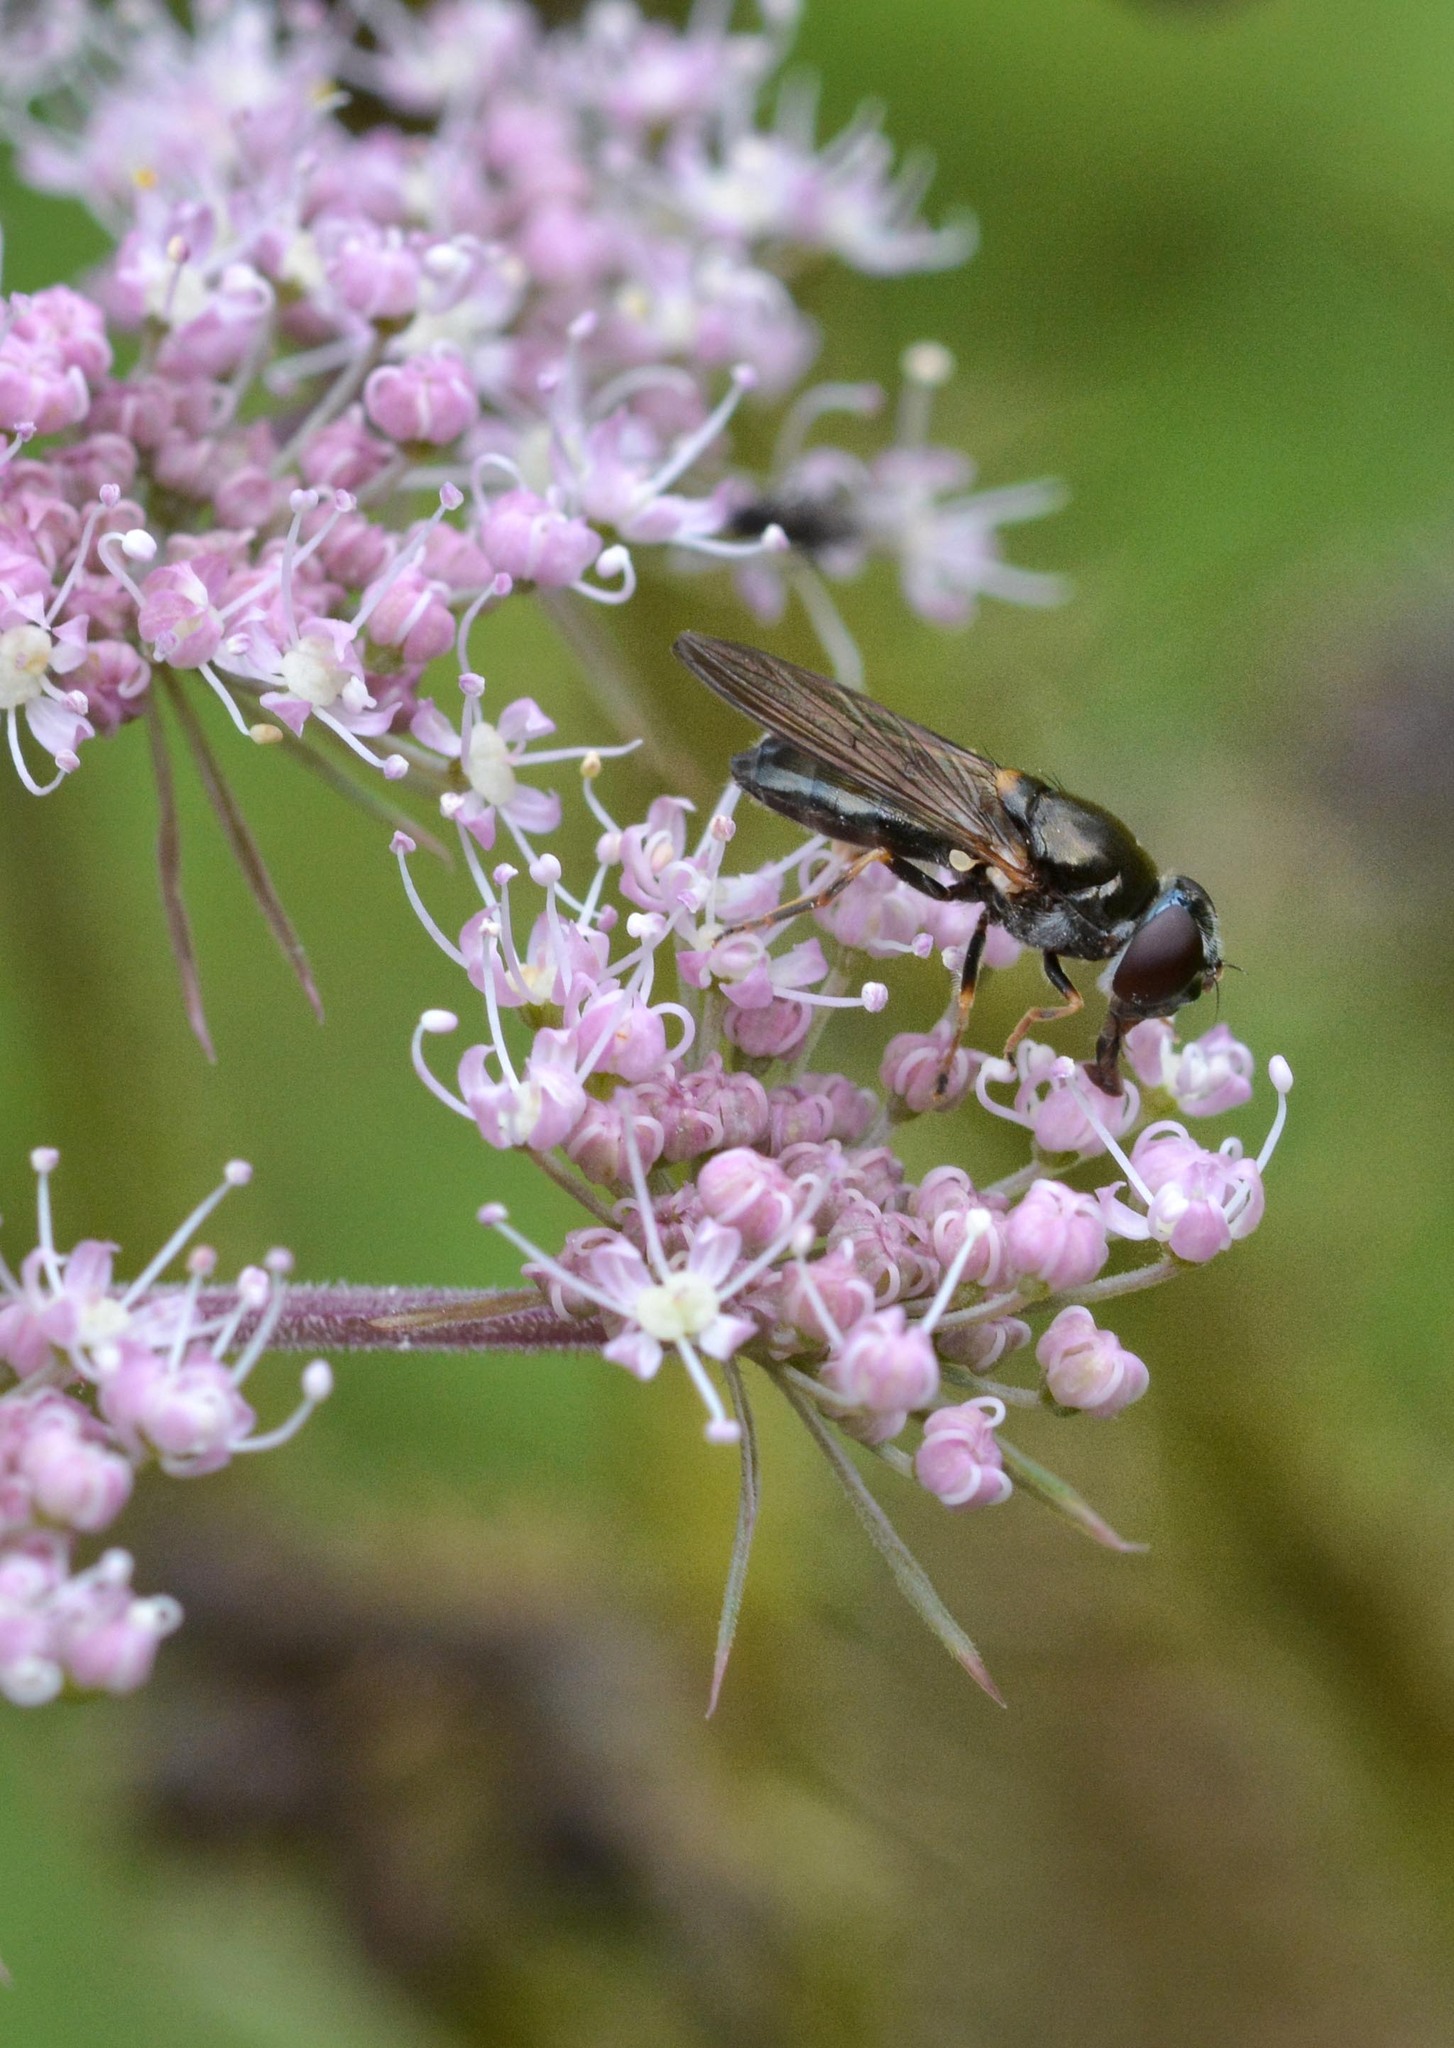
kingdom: Animalia
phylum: Arthropoda
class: Insecta
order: Diptera
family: Syrphidae
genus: Cheilosia
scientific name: Cheilosia ruffipes
